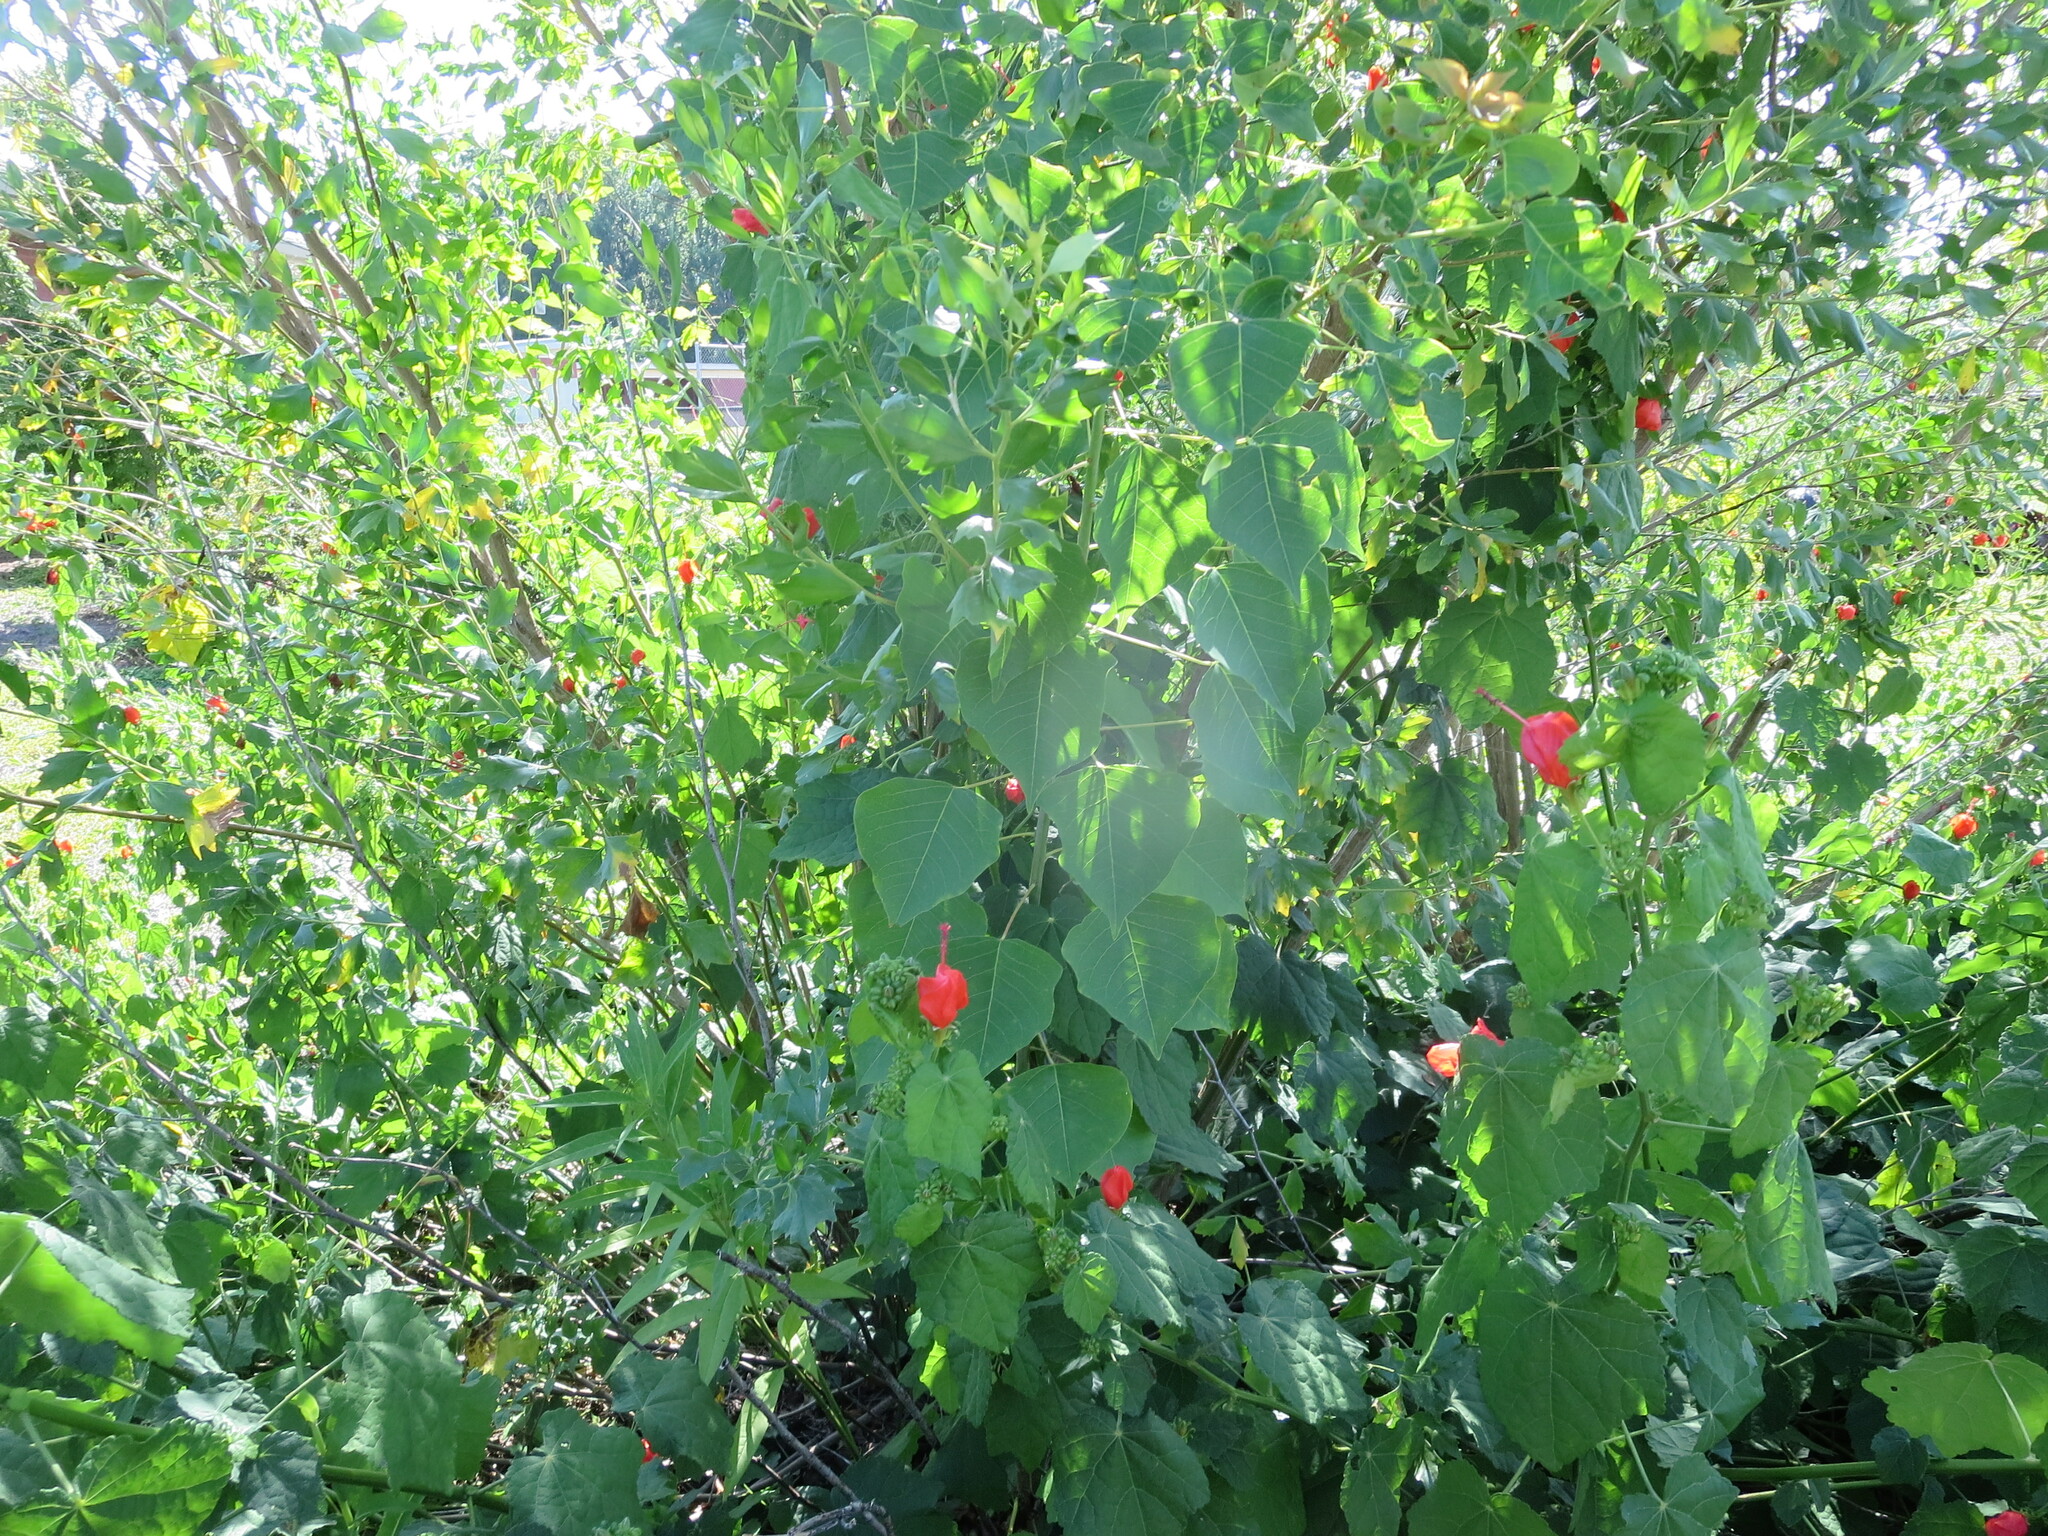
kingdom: Plantae
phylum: Tracheophyta
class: Magnoliopsida
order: Malpighiales
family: Euphorbiaceae
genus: Triadica
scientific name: Triadica sebifera
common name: Chinese tallow
